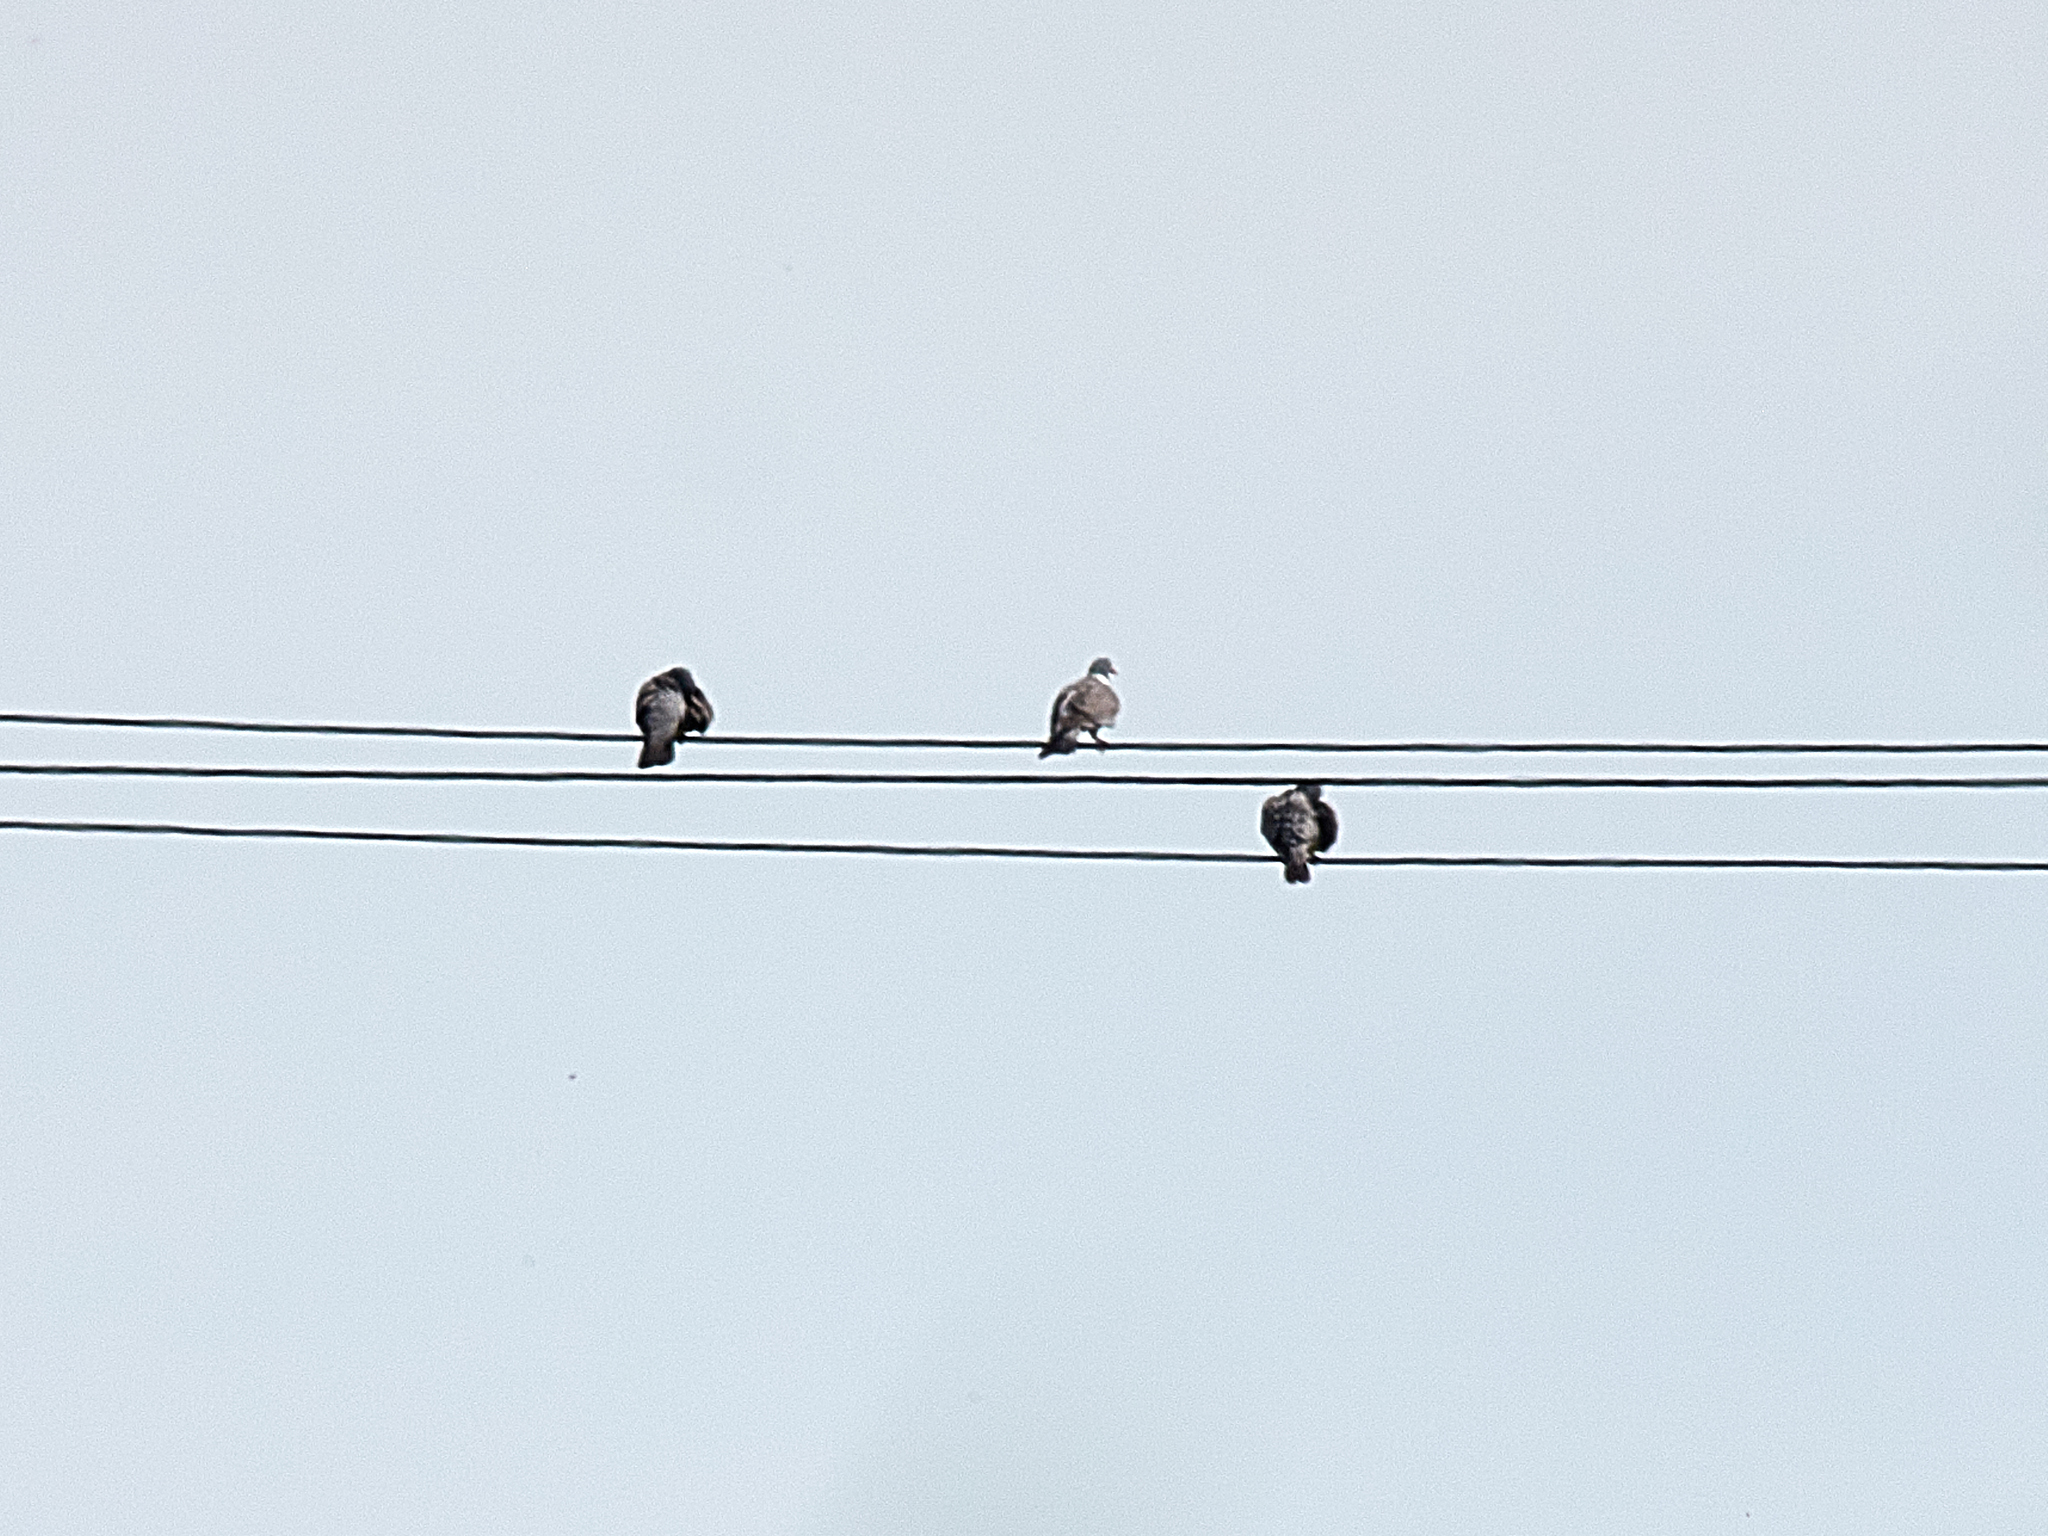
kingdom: Animalia
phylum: Chordata
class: Aves
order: Columbiformes
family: Columbidae
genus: Columba
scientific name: Columba palumbus
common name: Common wood pigeon
